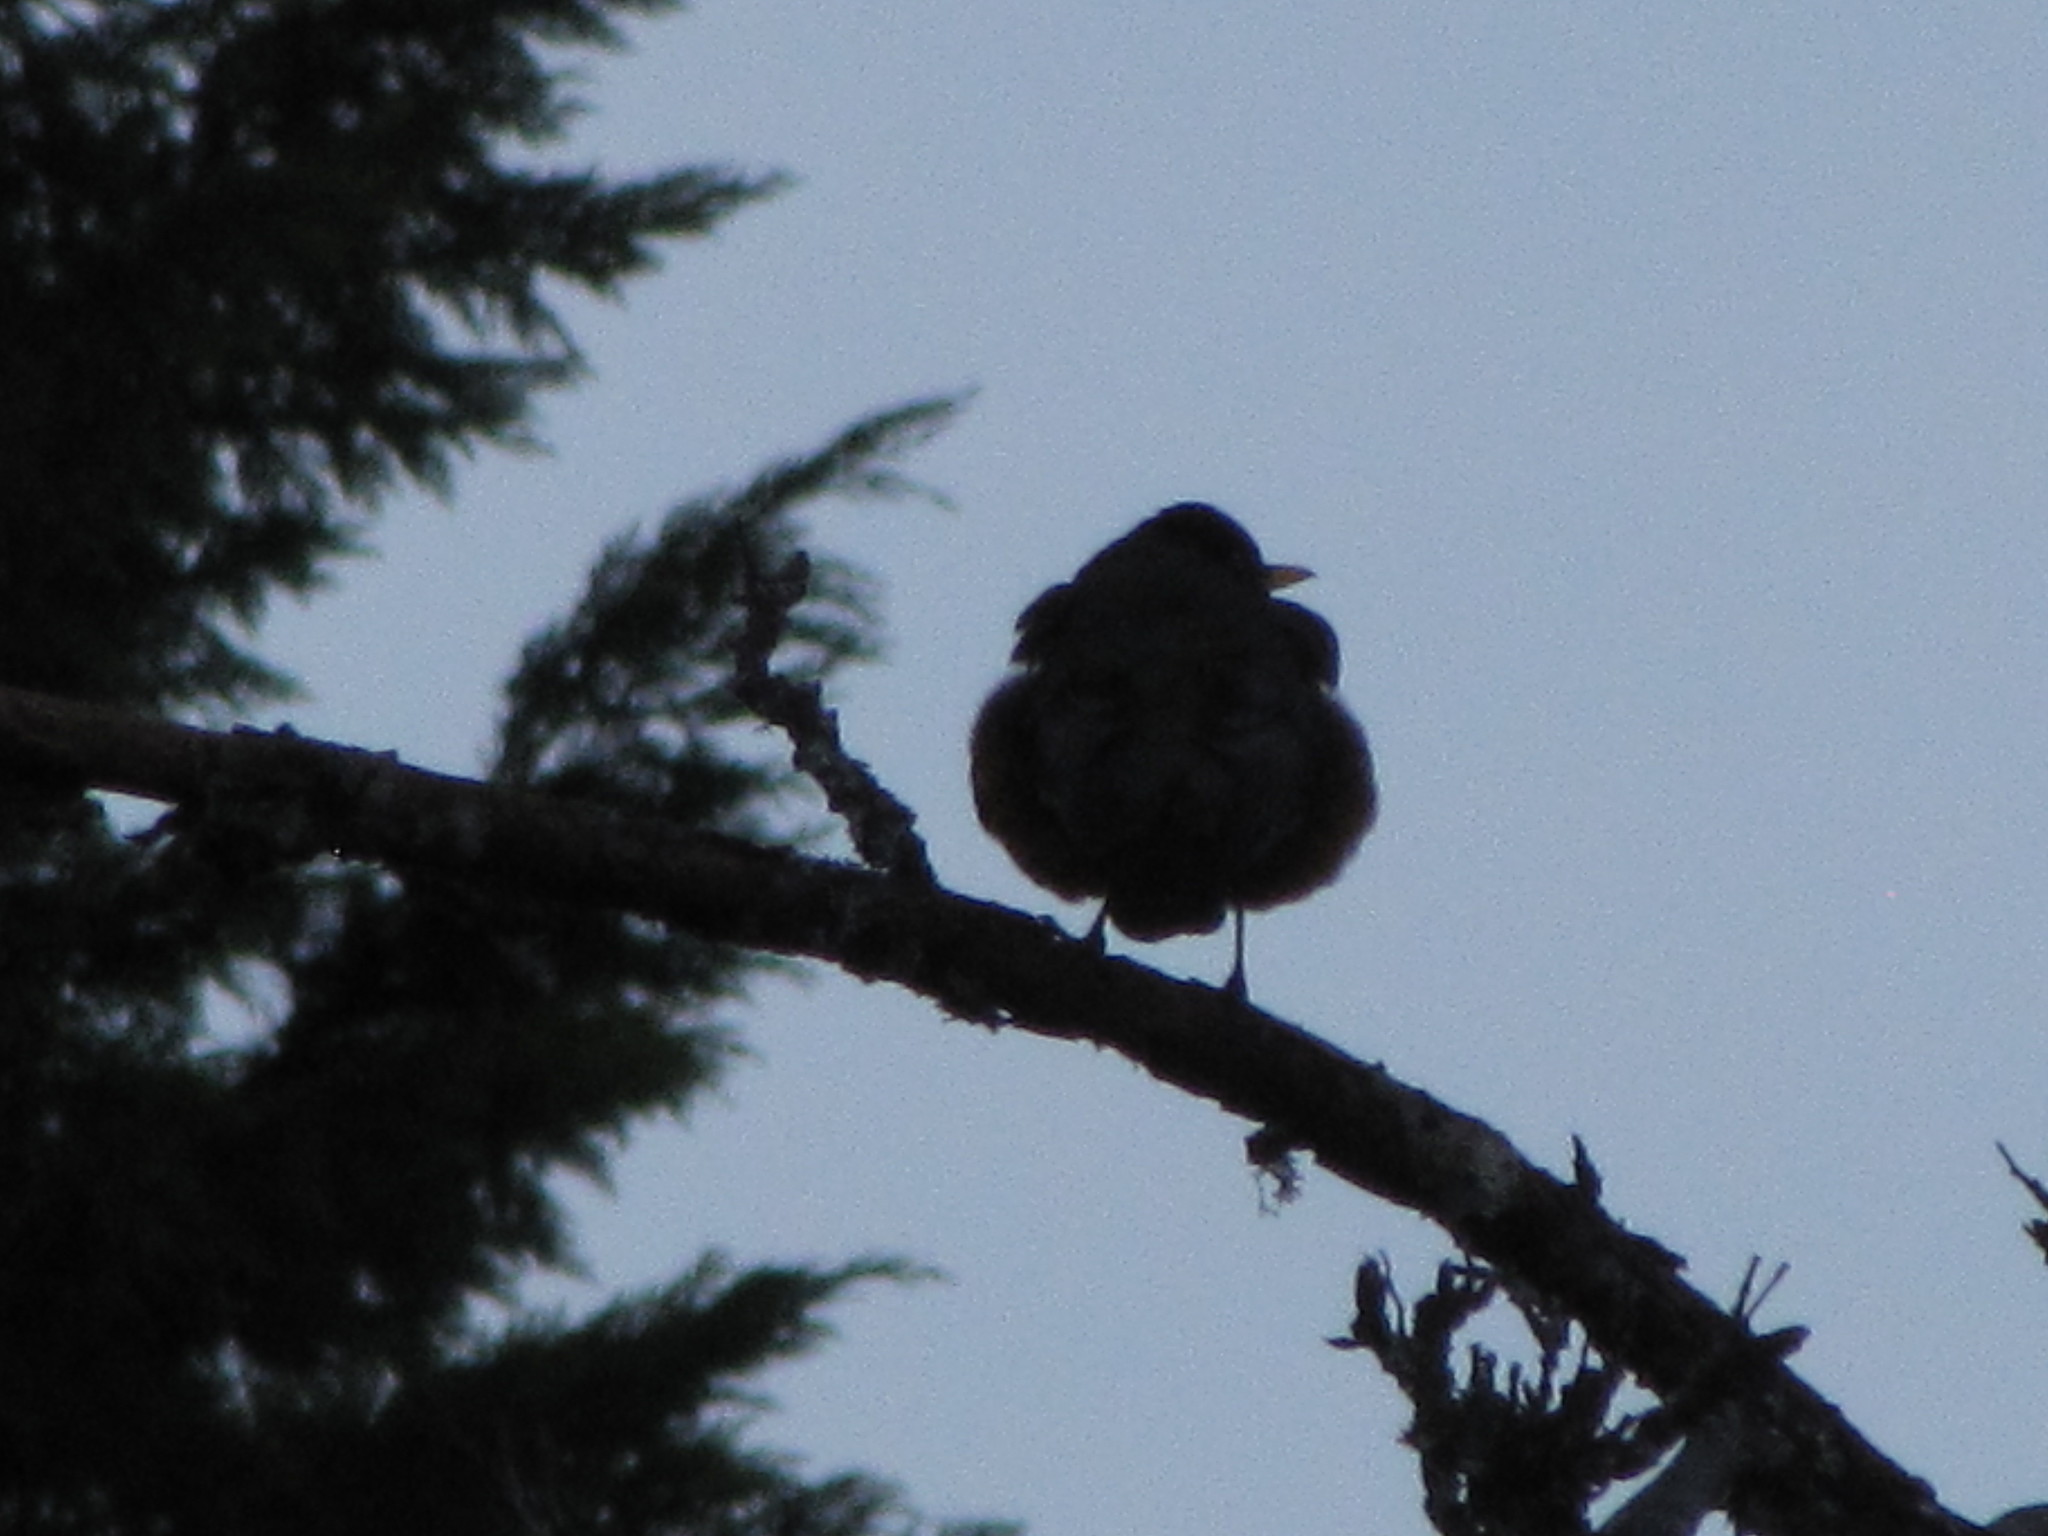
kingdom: Animalia
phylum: Chordata
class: Aves
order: Passeriformes
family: Turdidae
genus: Turdus
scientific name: Turdus migratorius
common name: American robin
